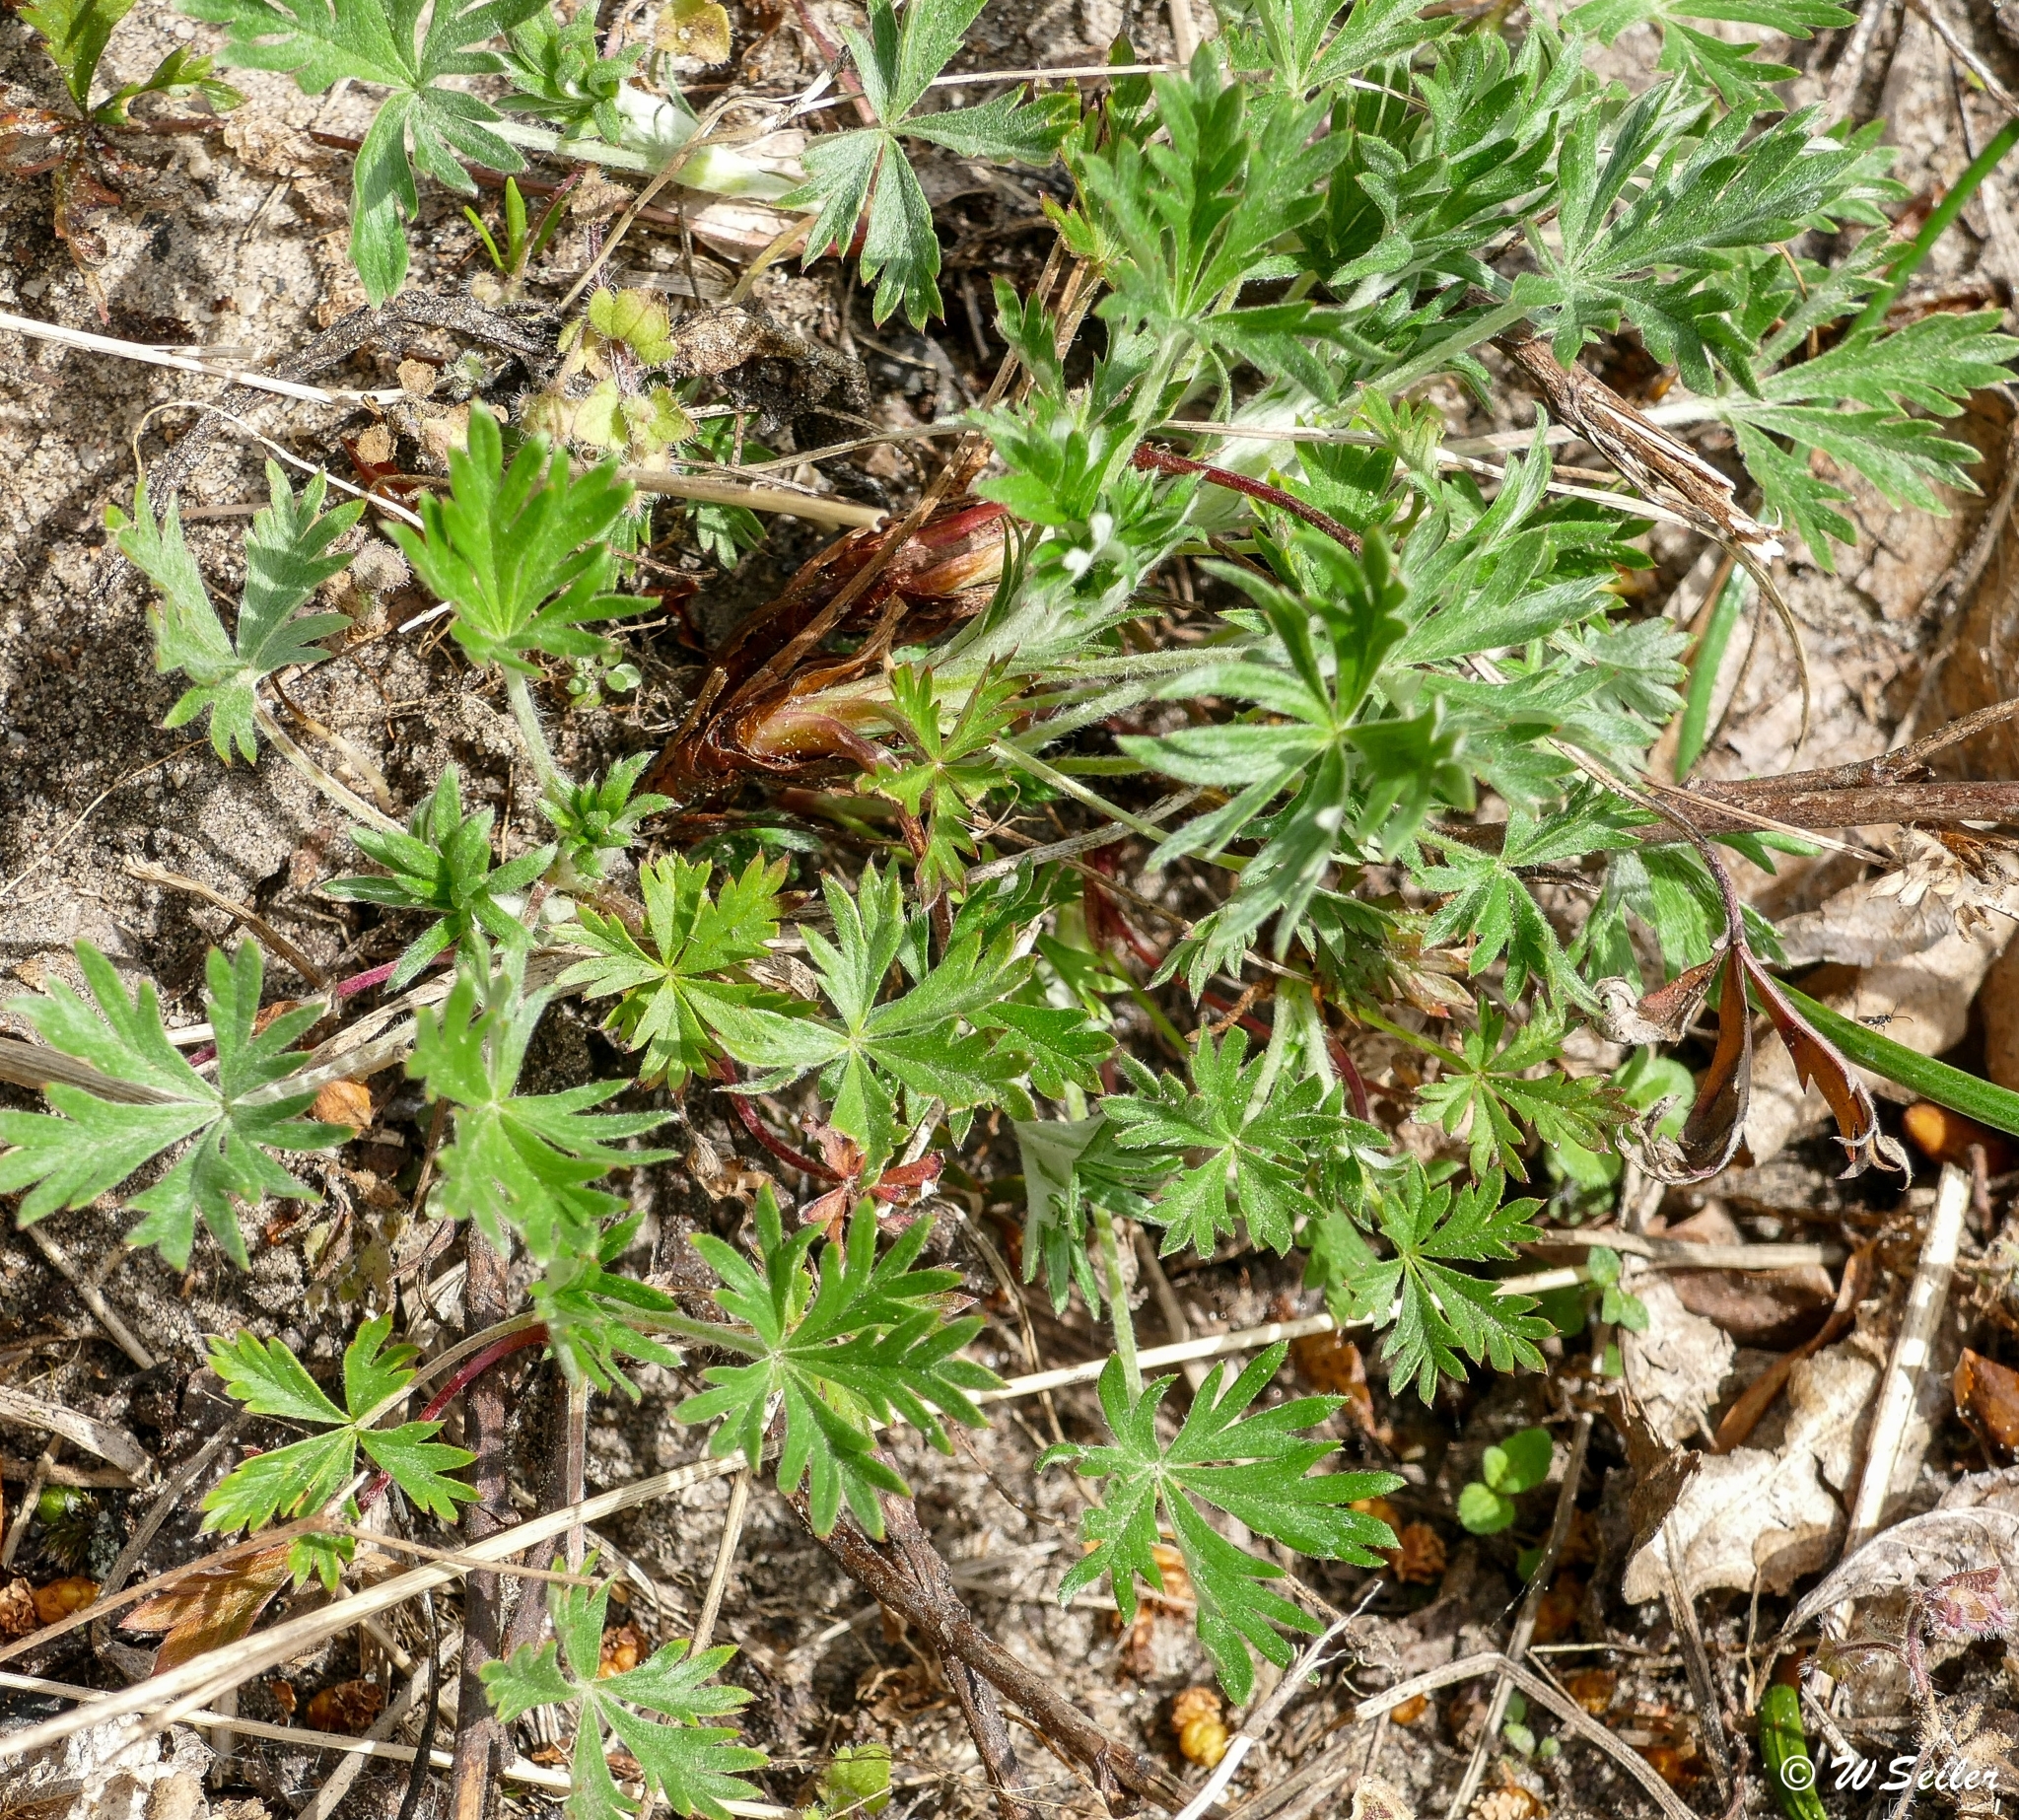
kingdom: Plantae
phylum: Tracheophyta
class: Magnoliopsida
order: Rosales
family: Rosaceae
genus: Potentilla
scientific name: Potentilla argentea
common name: Hoary cinquefoil
